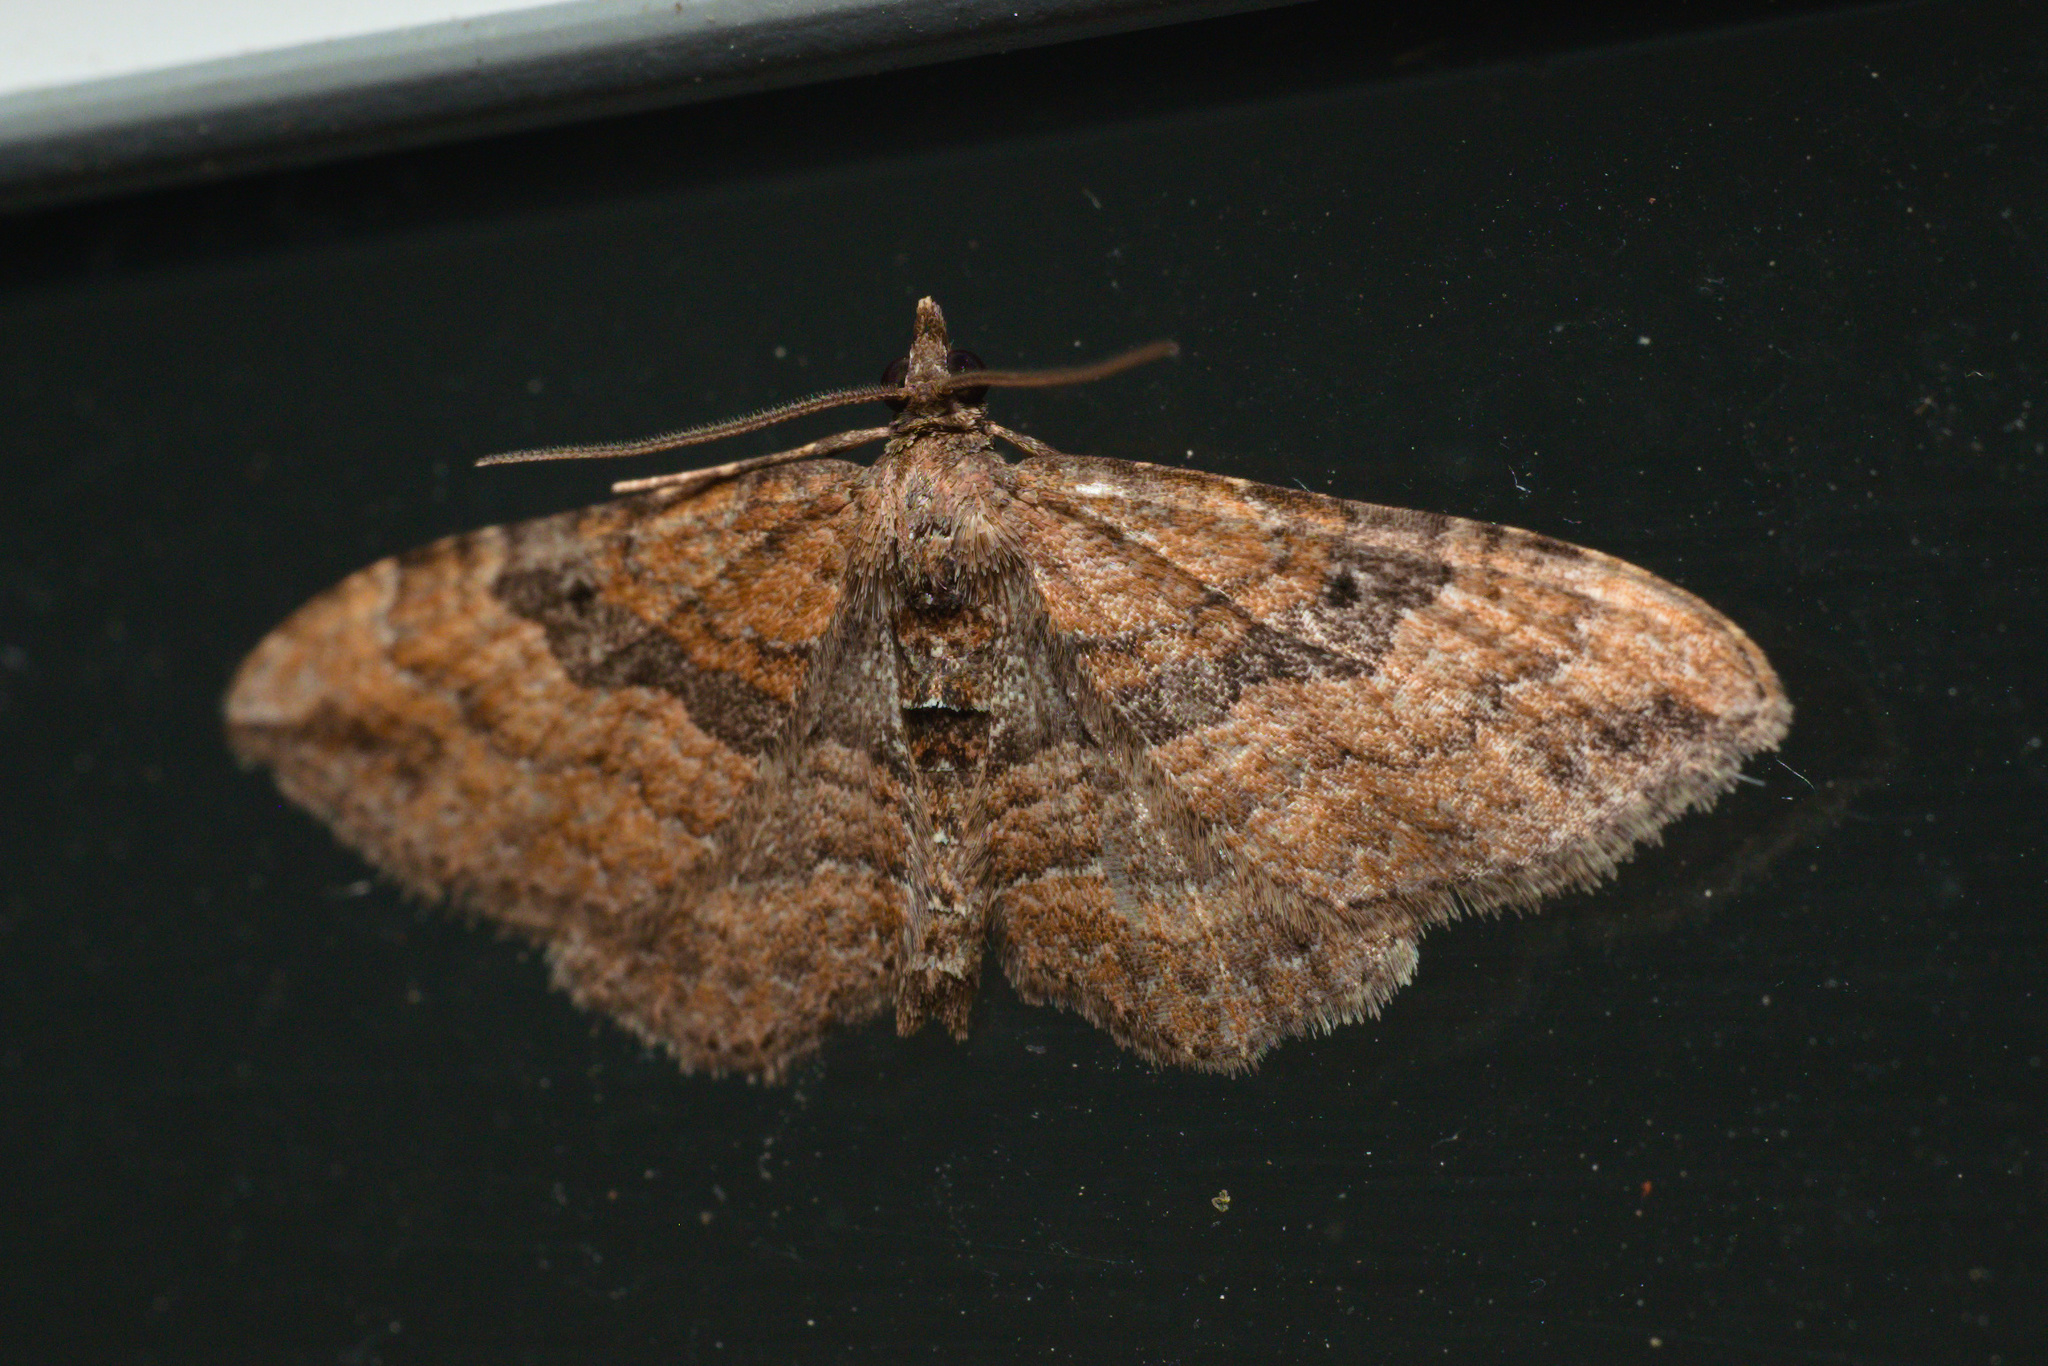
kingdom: Animalia
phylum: Arthropoda
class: Insecta
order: Lepidoptera
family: Geometridae
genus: Orthonama
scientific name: Orthonama obstipata
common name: The gem
